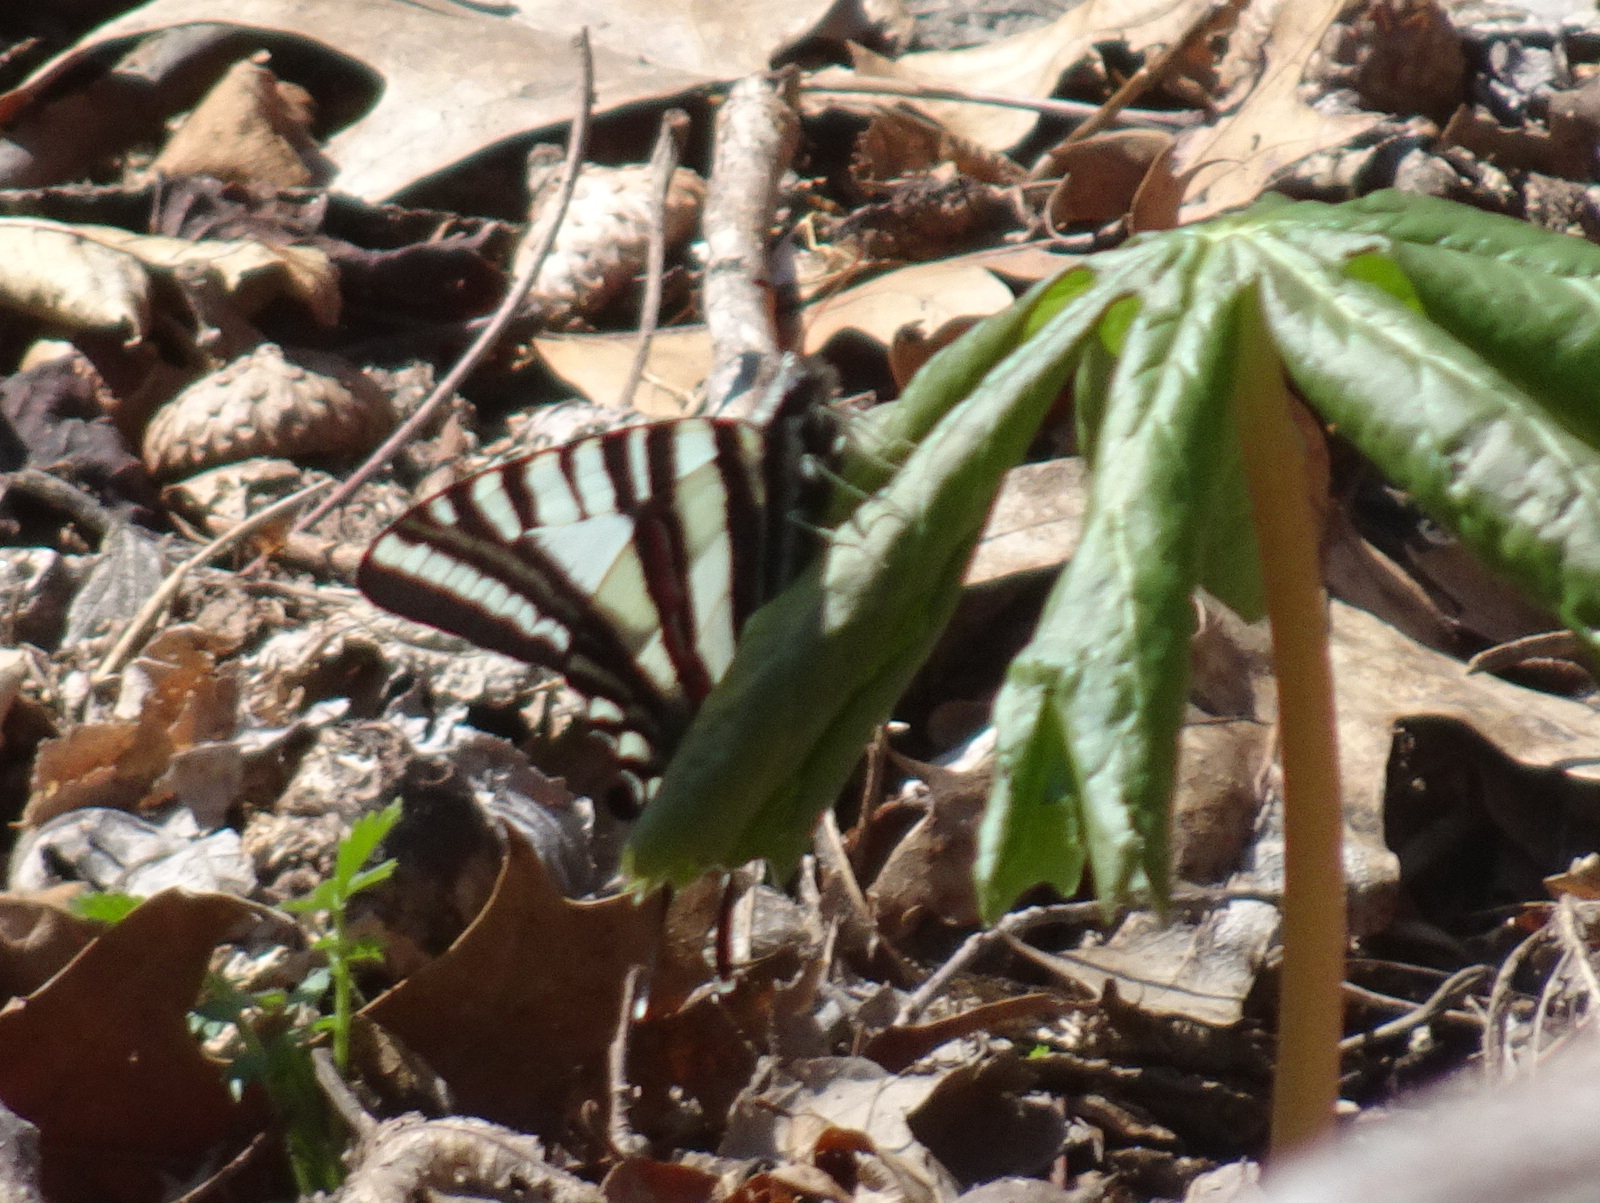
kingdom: Animalia
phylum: Arthropoda
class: Insecta
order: Lepidoptera
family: Papilionidae
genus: Protographium
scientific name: Protographium marcellus
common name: Zebra swallowtail
